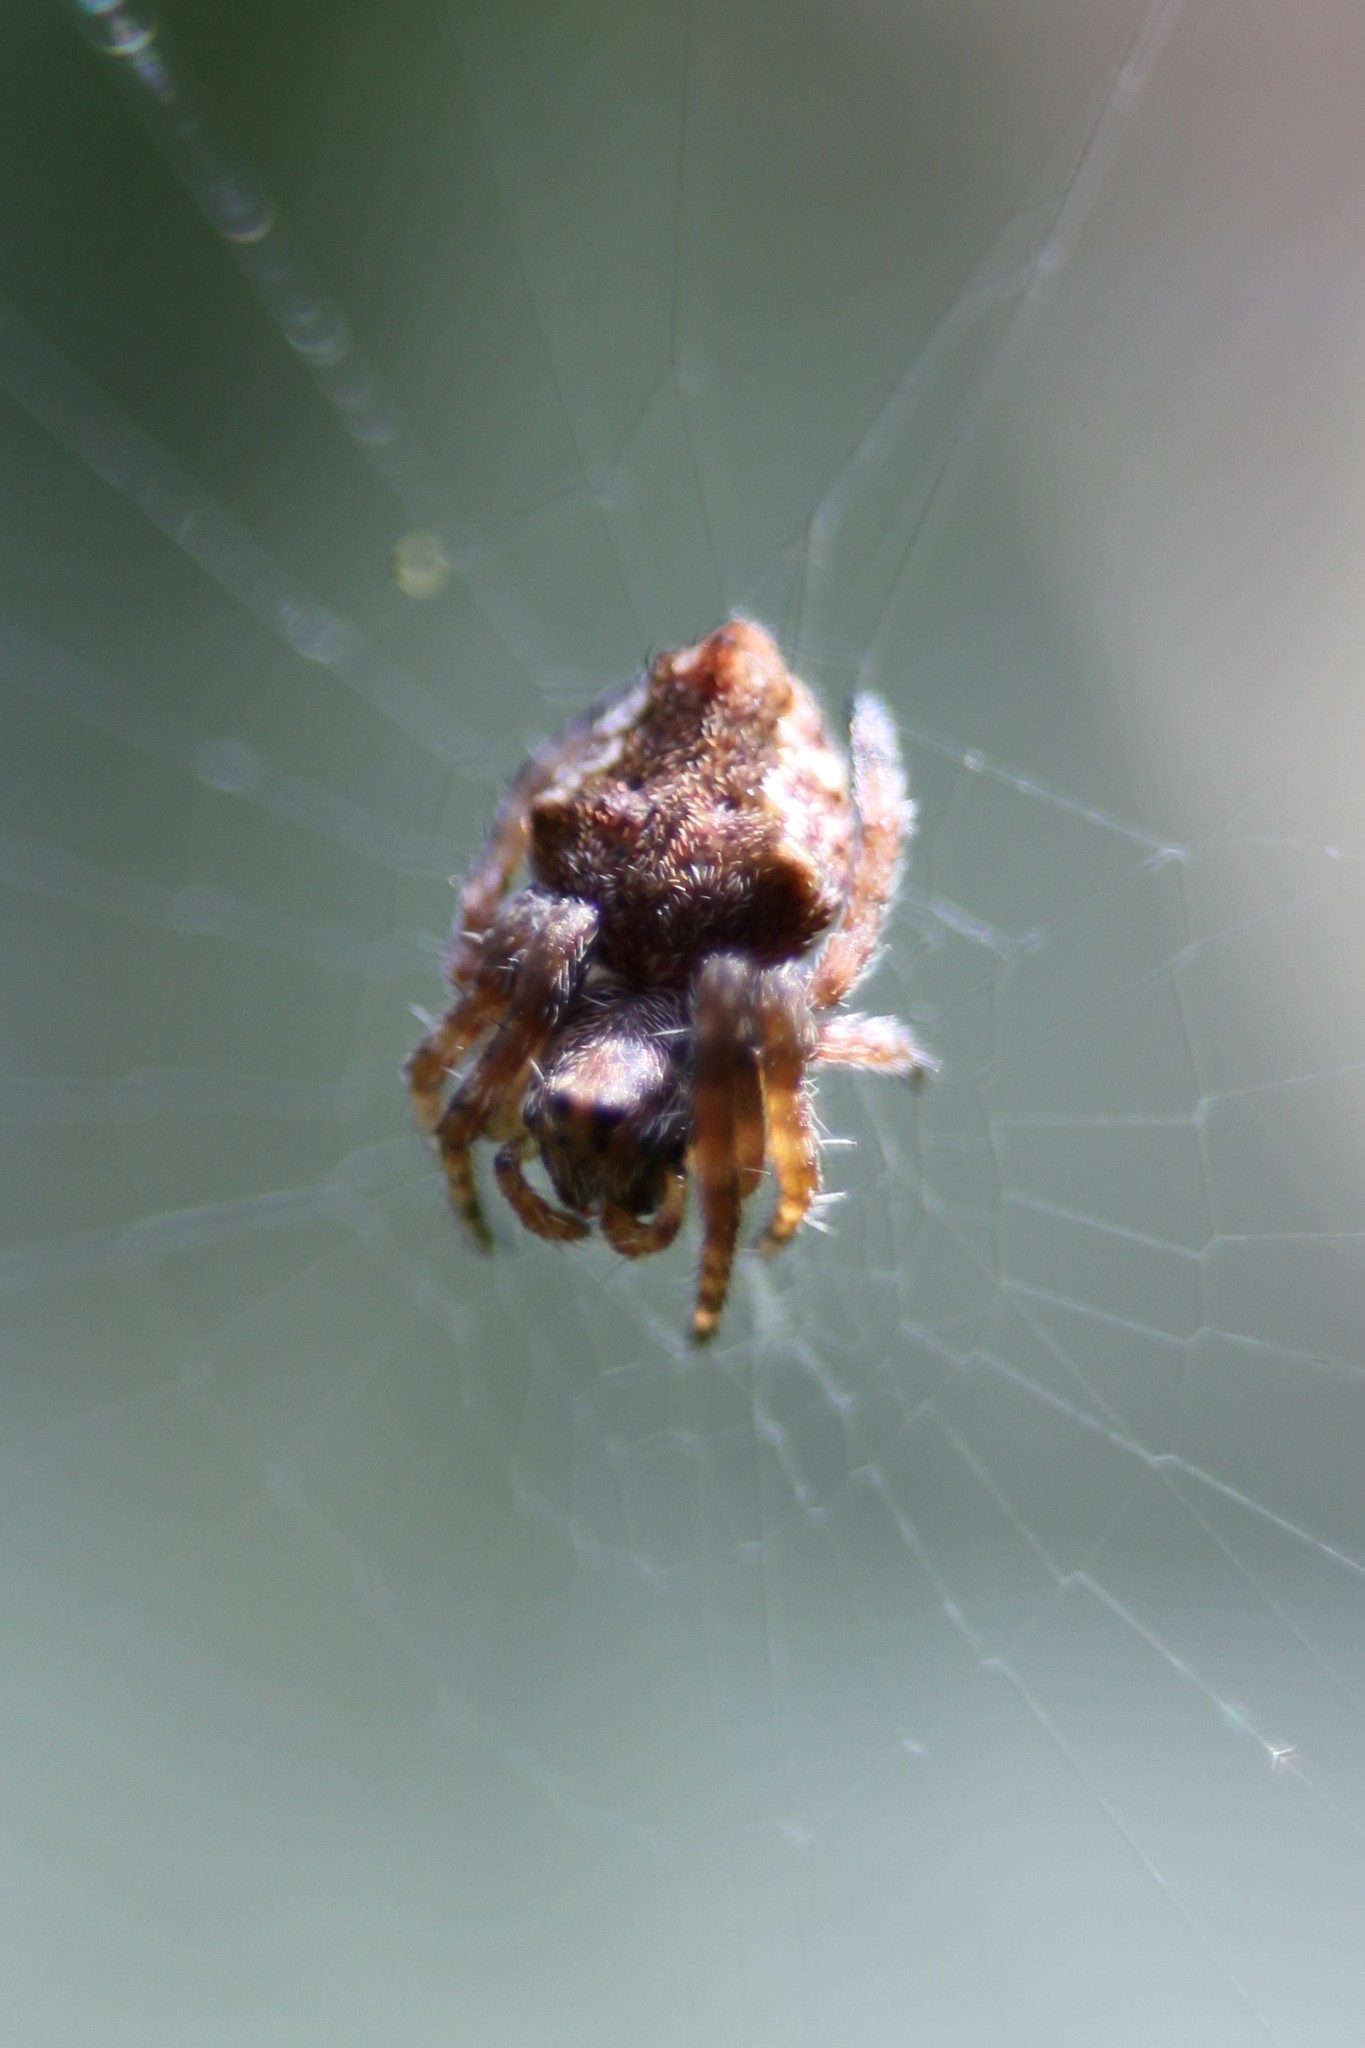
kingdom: Animalia
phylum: Arthropoda
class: Arachnida
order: Araneae
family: Araneidae
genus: Eriophora
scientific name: Eriophora pustulosa
